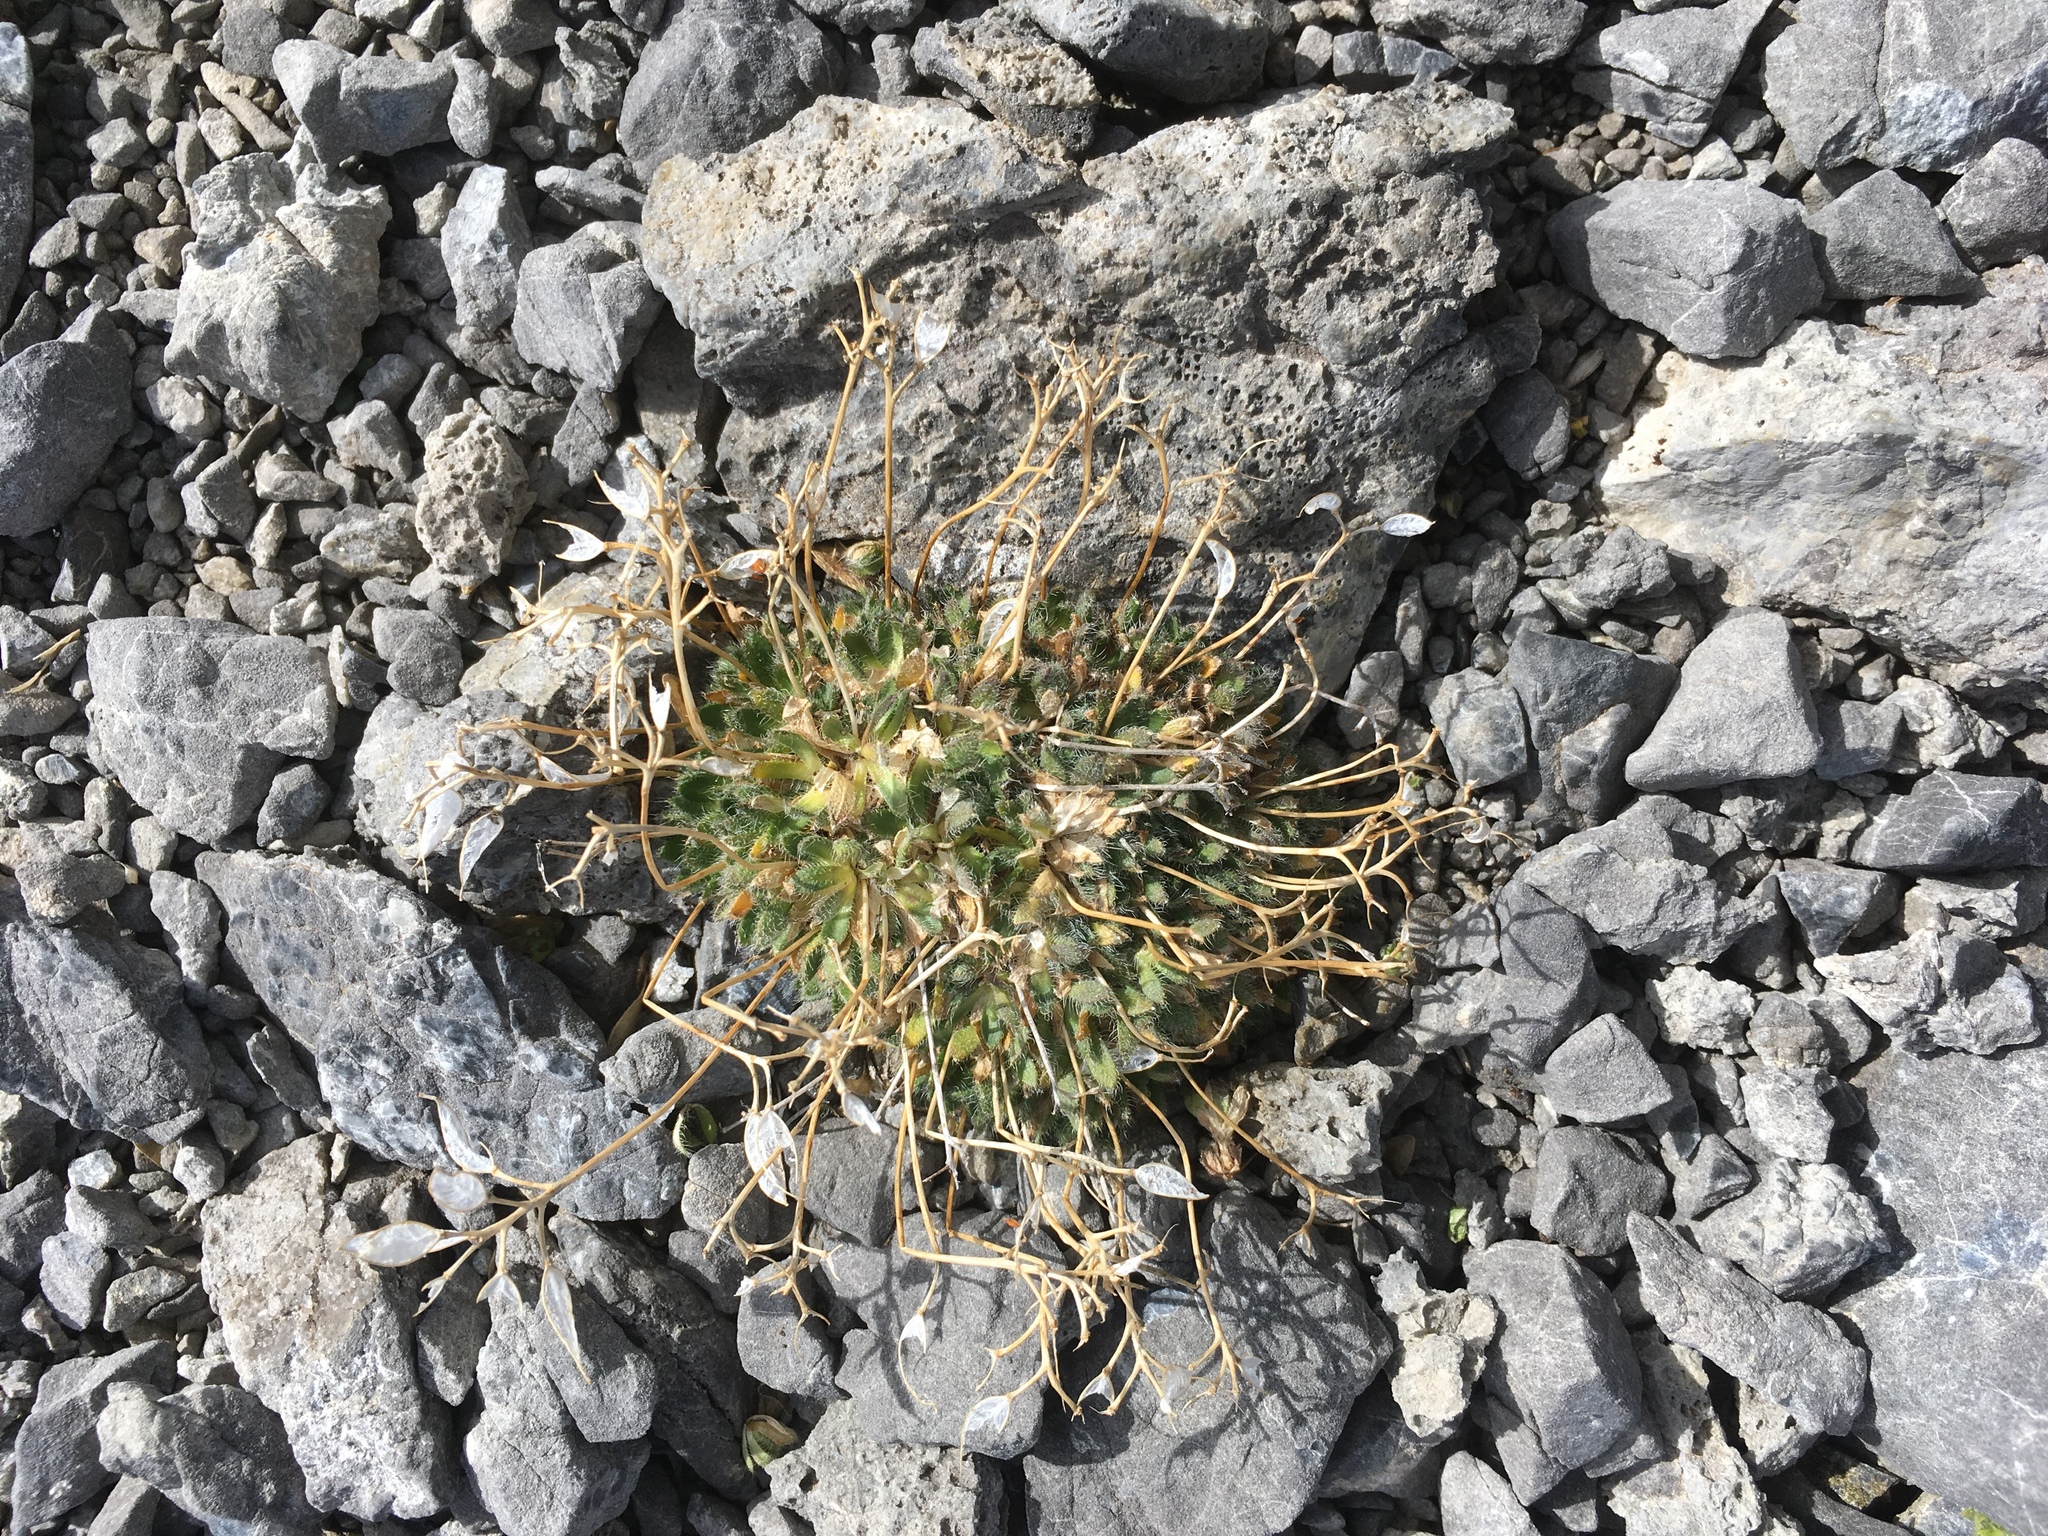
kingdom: Plantae
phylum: Tracheophyta
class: Magnoliopsida
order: Brassicales
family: Brassicaceae
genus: Draba
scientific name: Draba ladina
